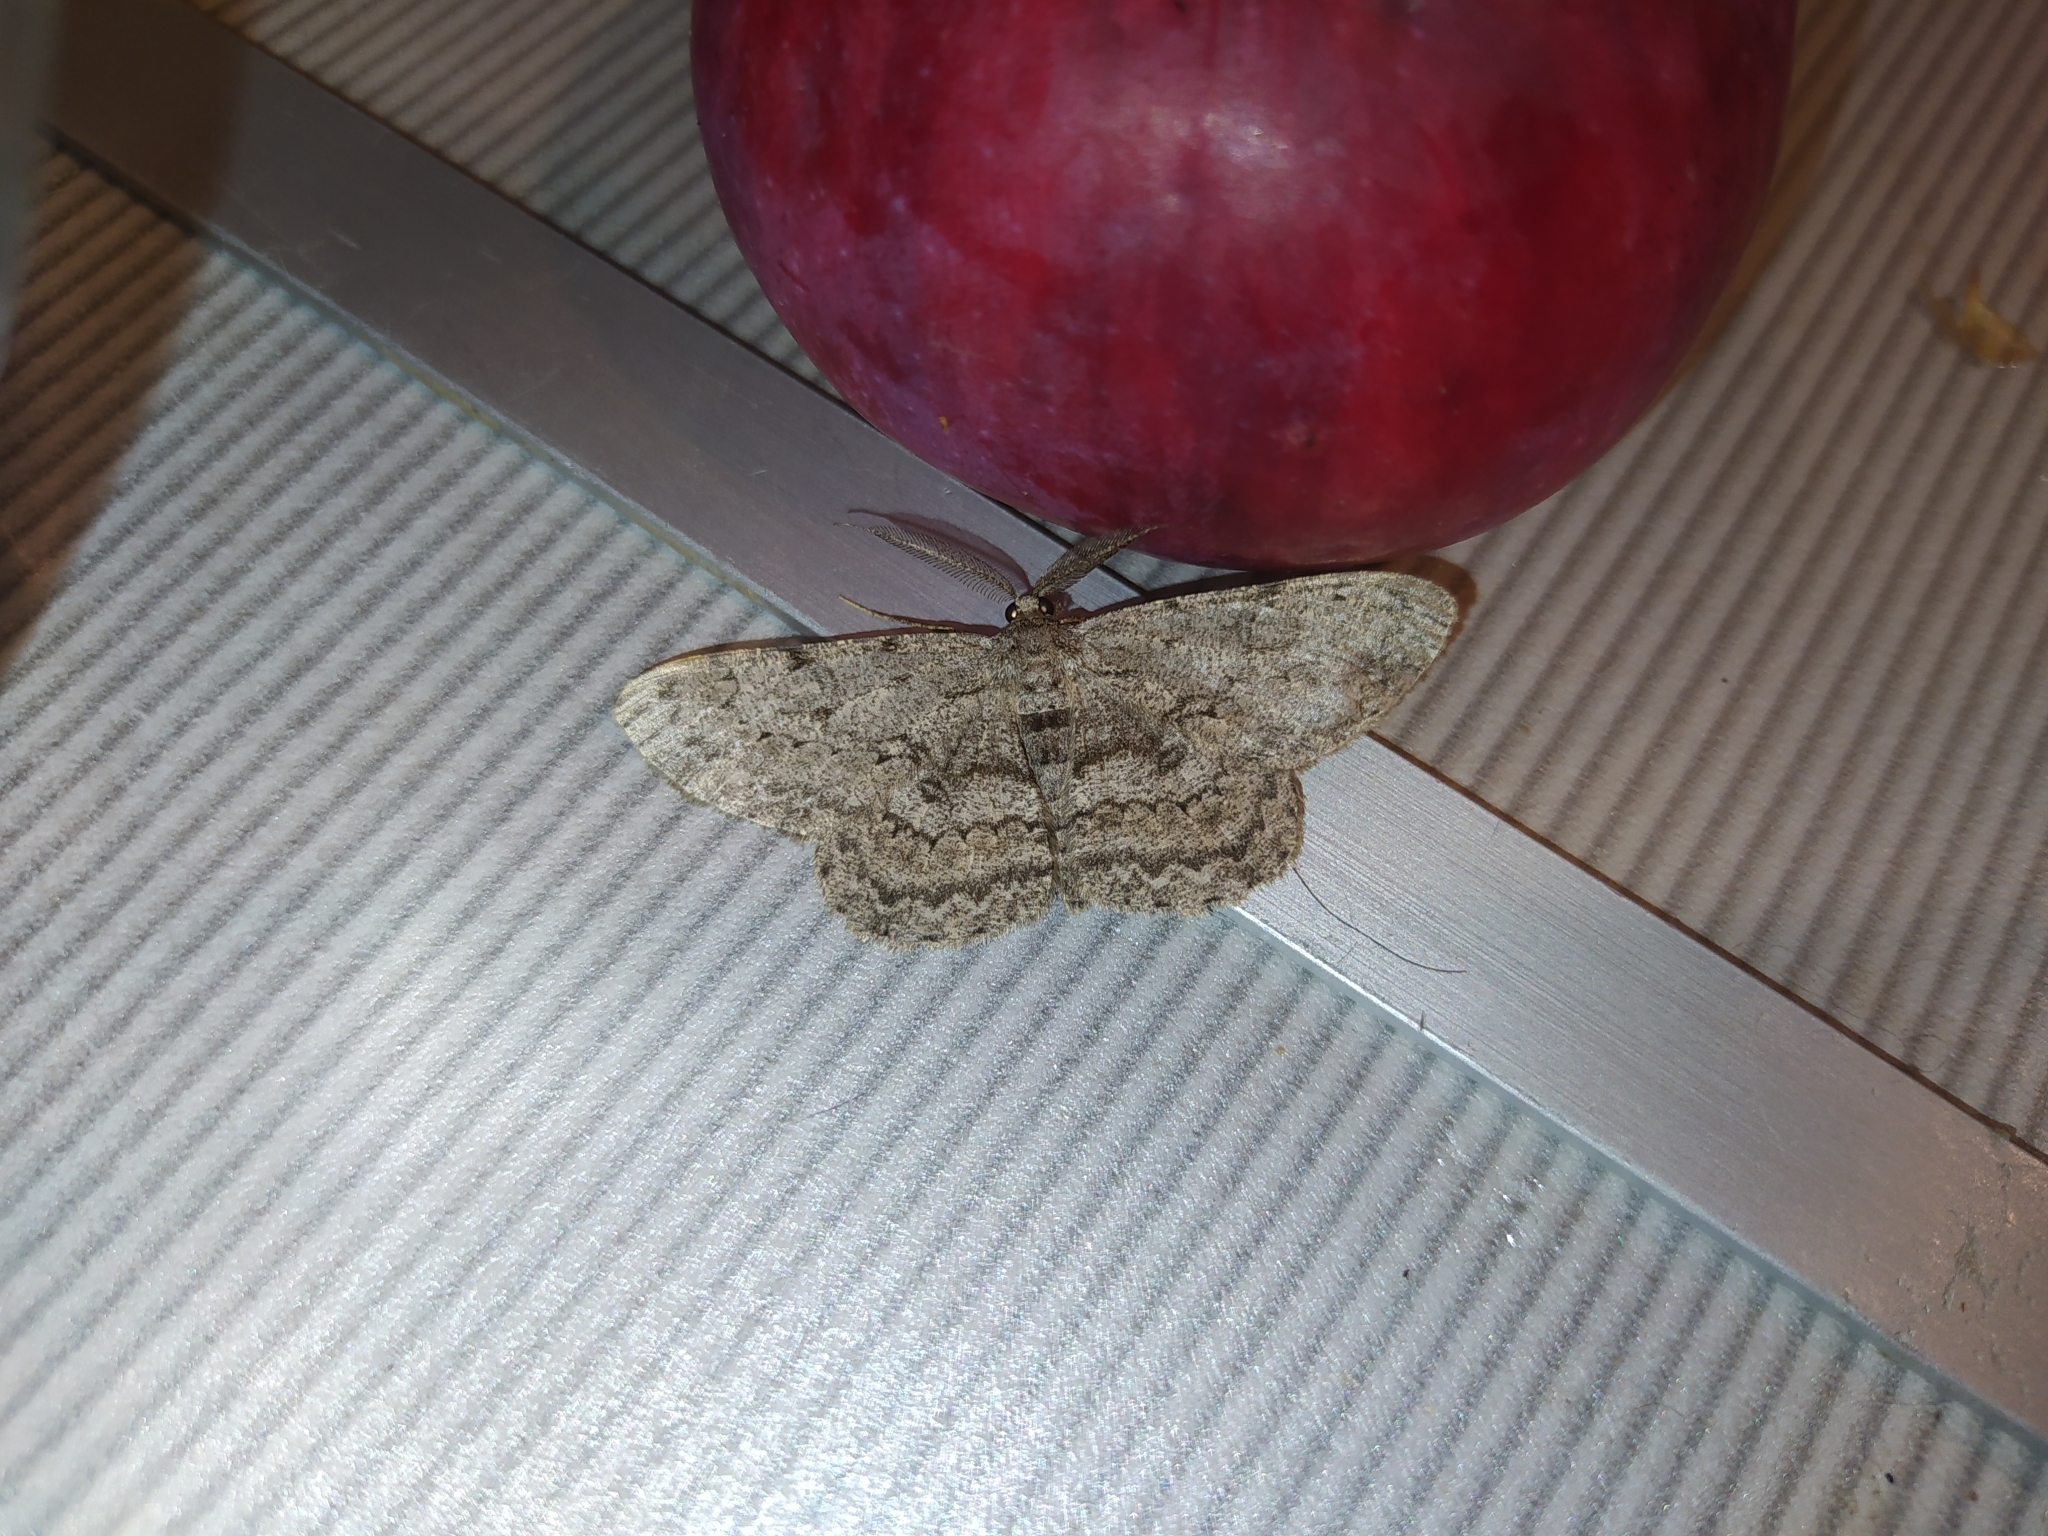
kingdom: Animalia
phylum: Arthropoda
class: Insecta
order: Lepidoptera
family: Geometridae
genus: Hypomecis
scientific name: Hypomecis punctinalis
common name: Pale oak beauty
